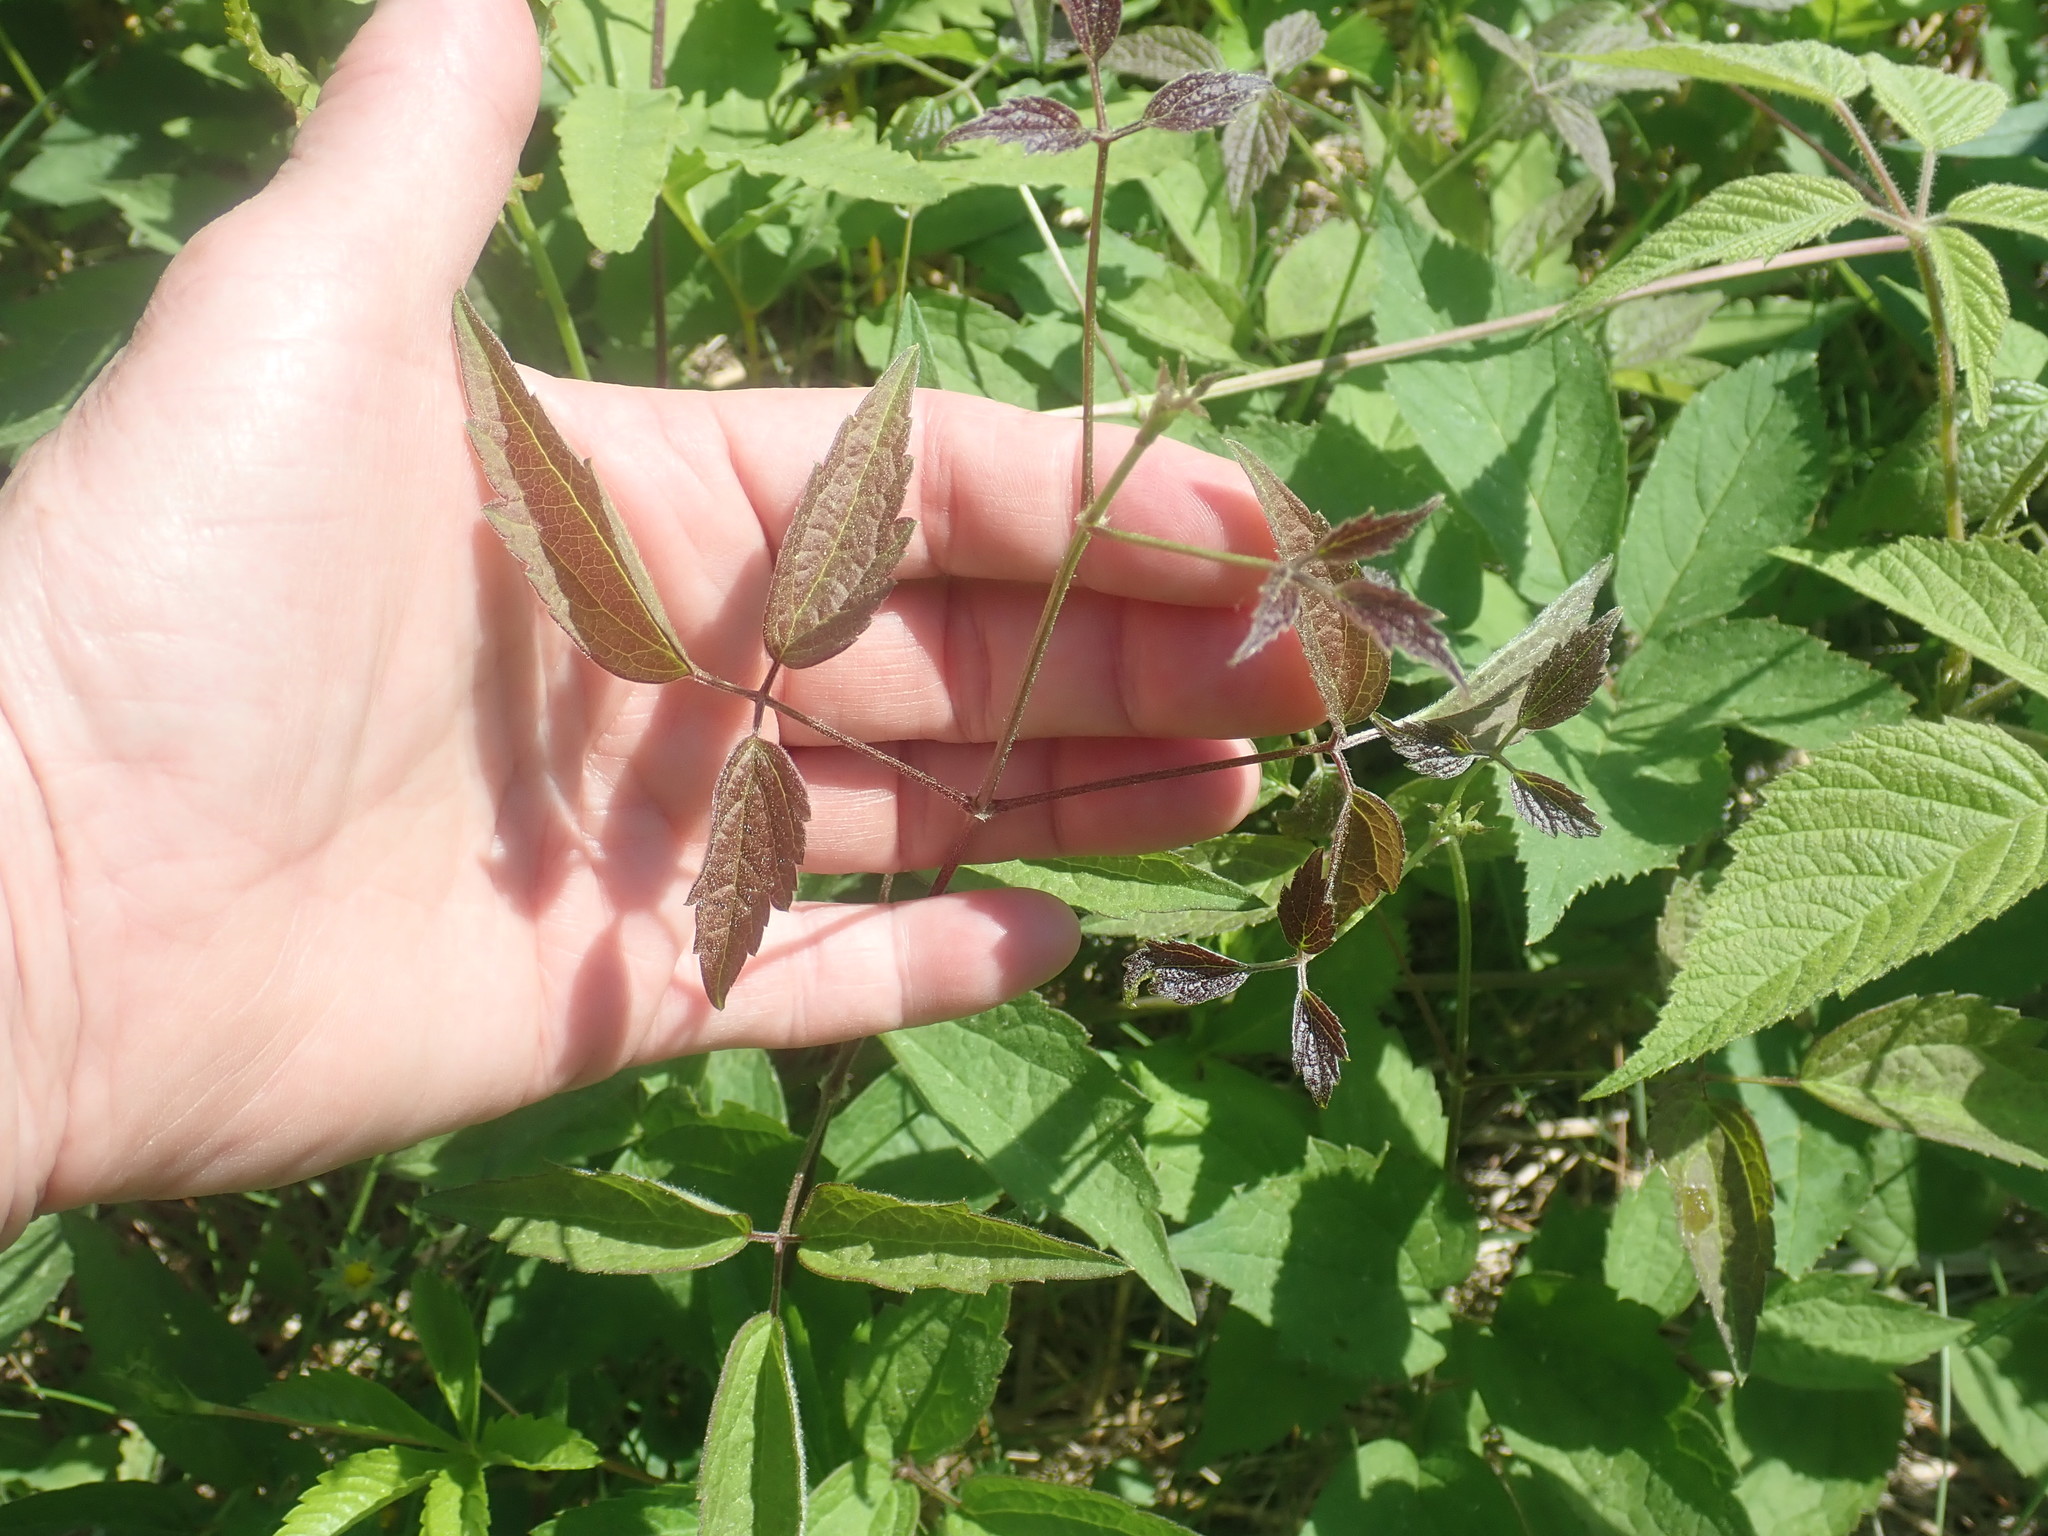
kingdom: Plantae
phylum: Tracheophyta
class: Magnoliopsida
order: Ranunculales
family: Ranunculaceae
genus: Clematis
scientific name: Clematis virginiana
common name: Virgin's-bower
